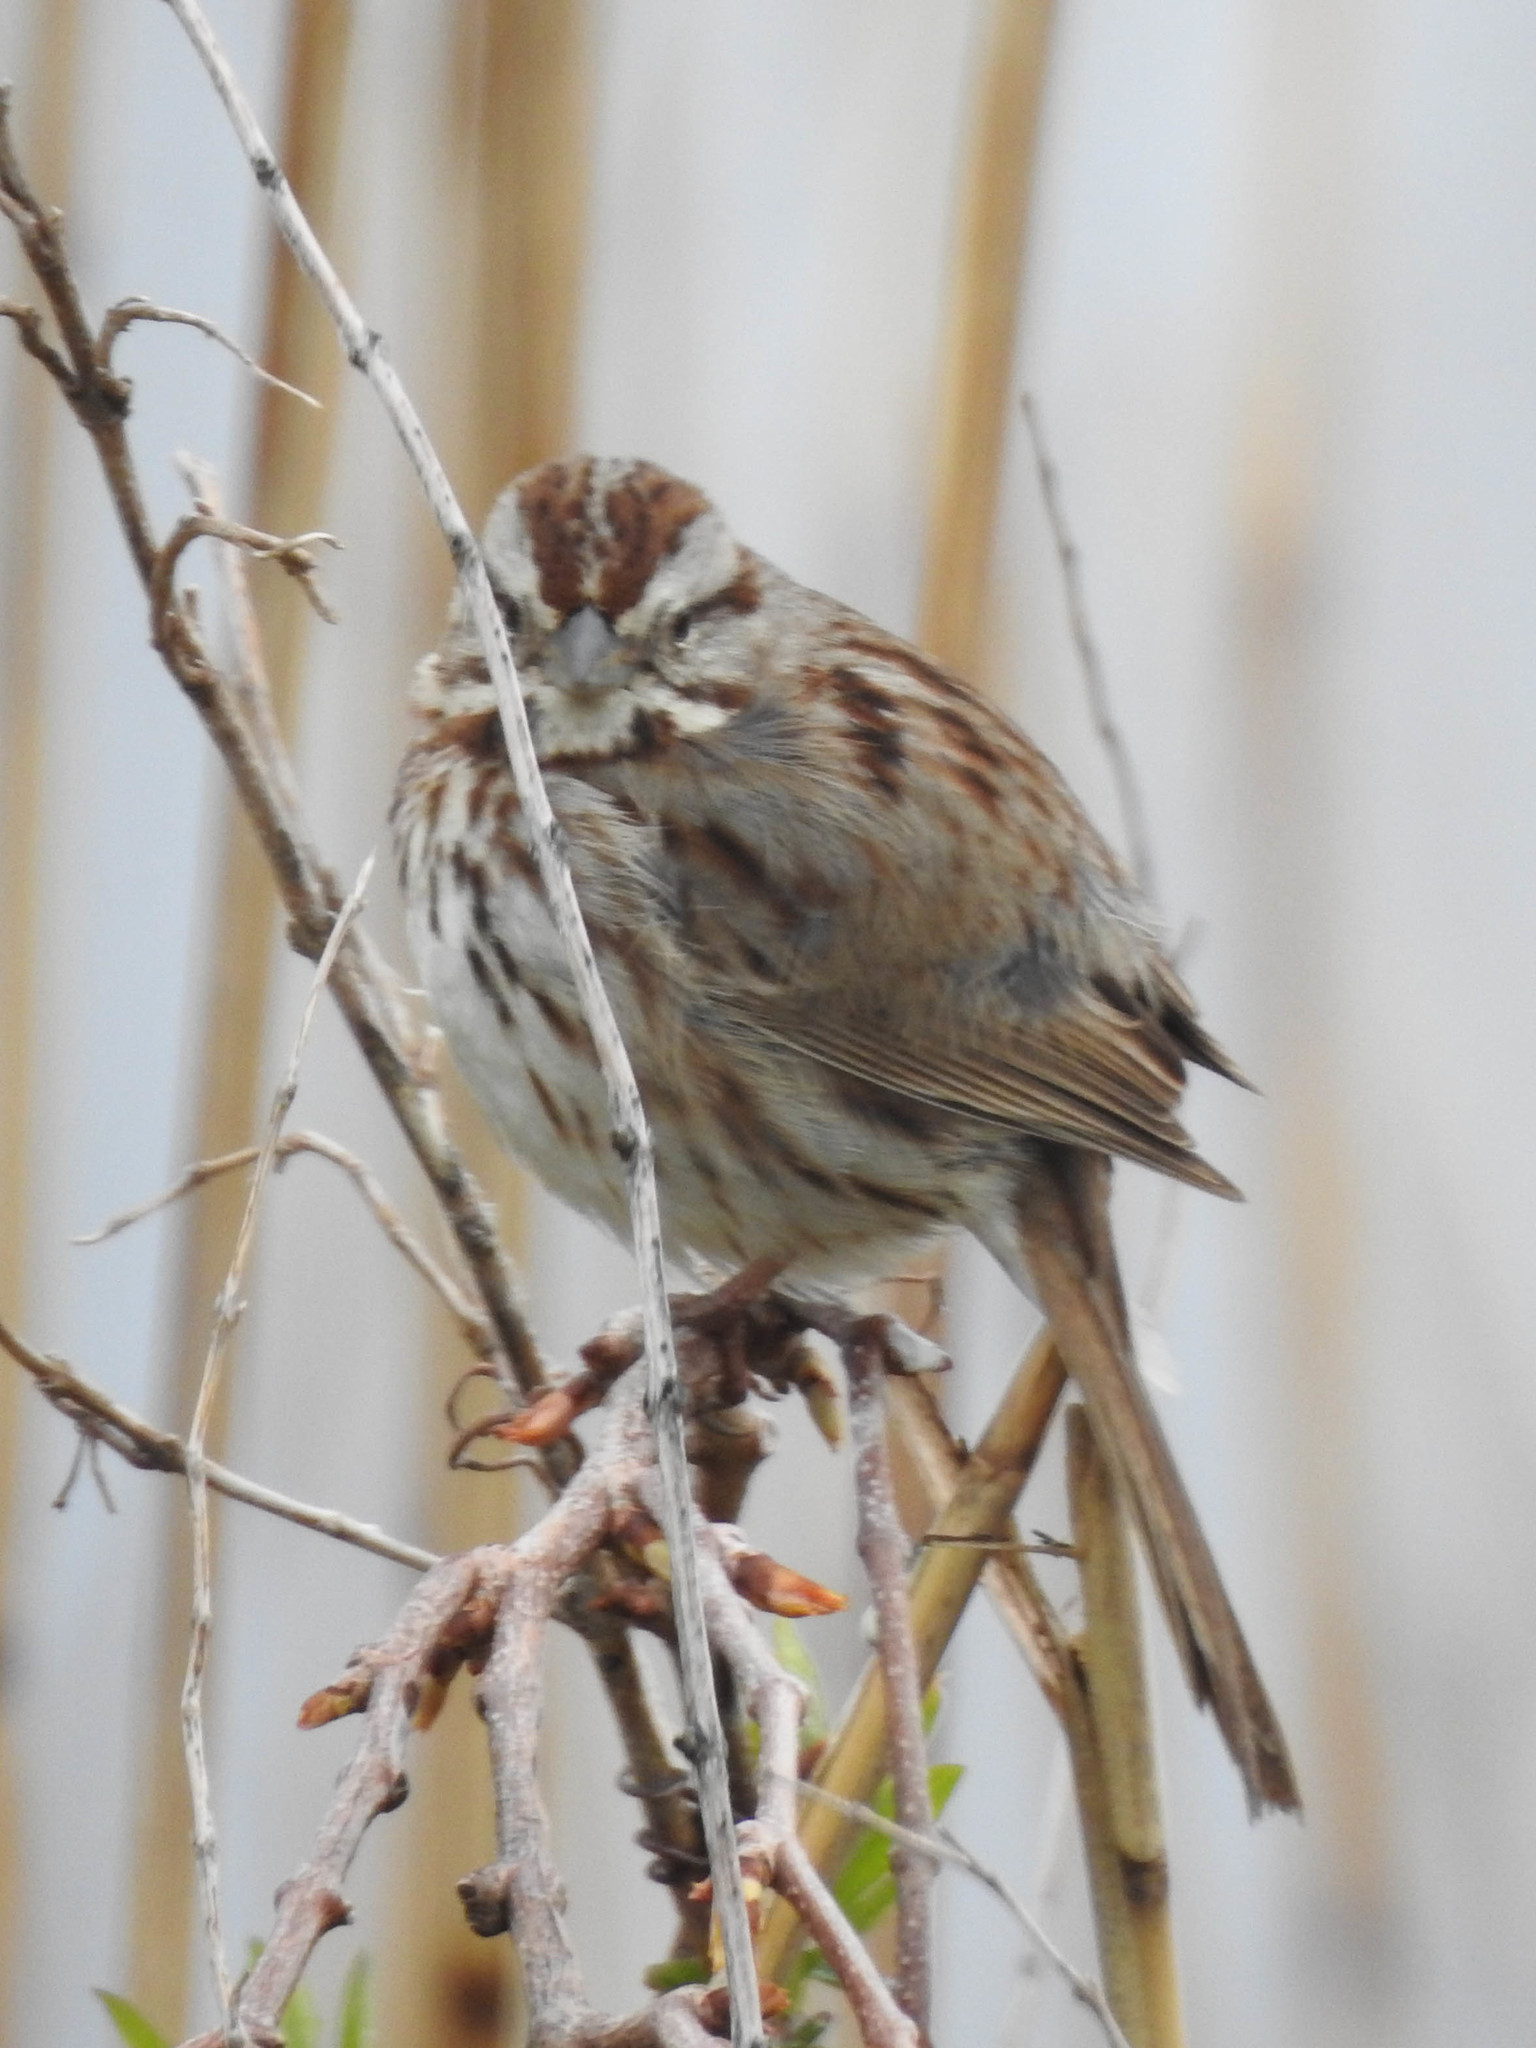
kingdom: Animalia
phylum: Chordata
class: Aves
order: Passeriformes
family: Passerellidae
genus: Melospiza
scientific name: Melospiza melodia
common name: Song sparrow
